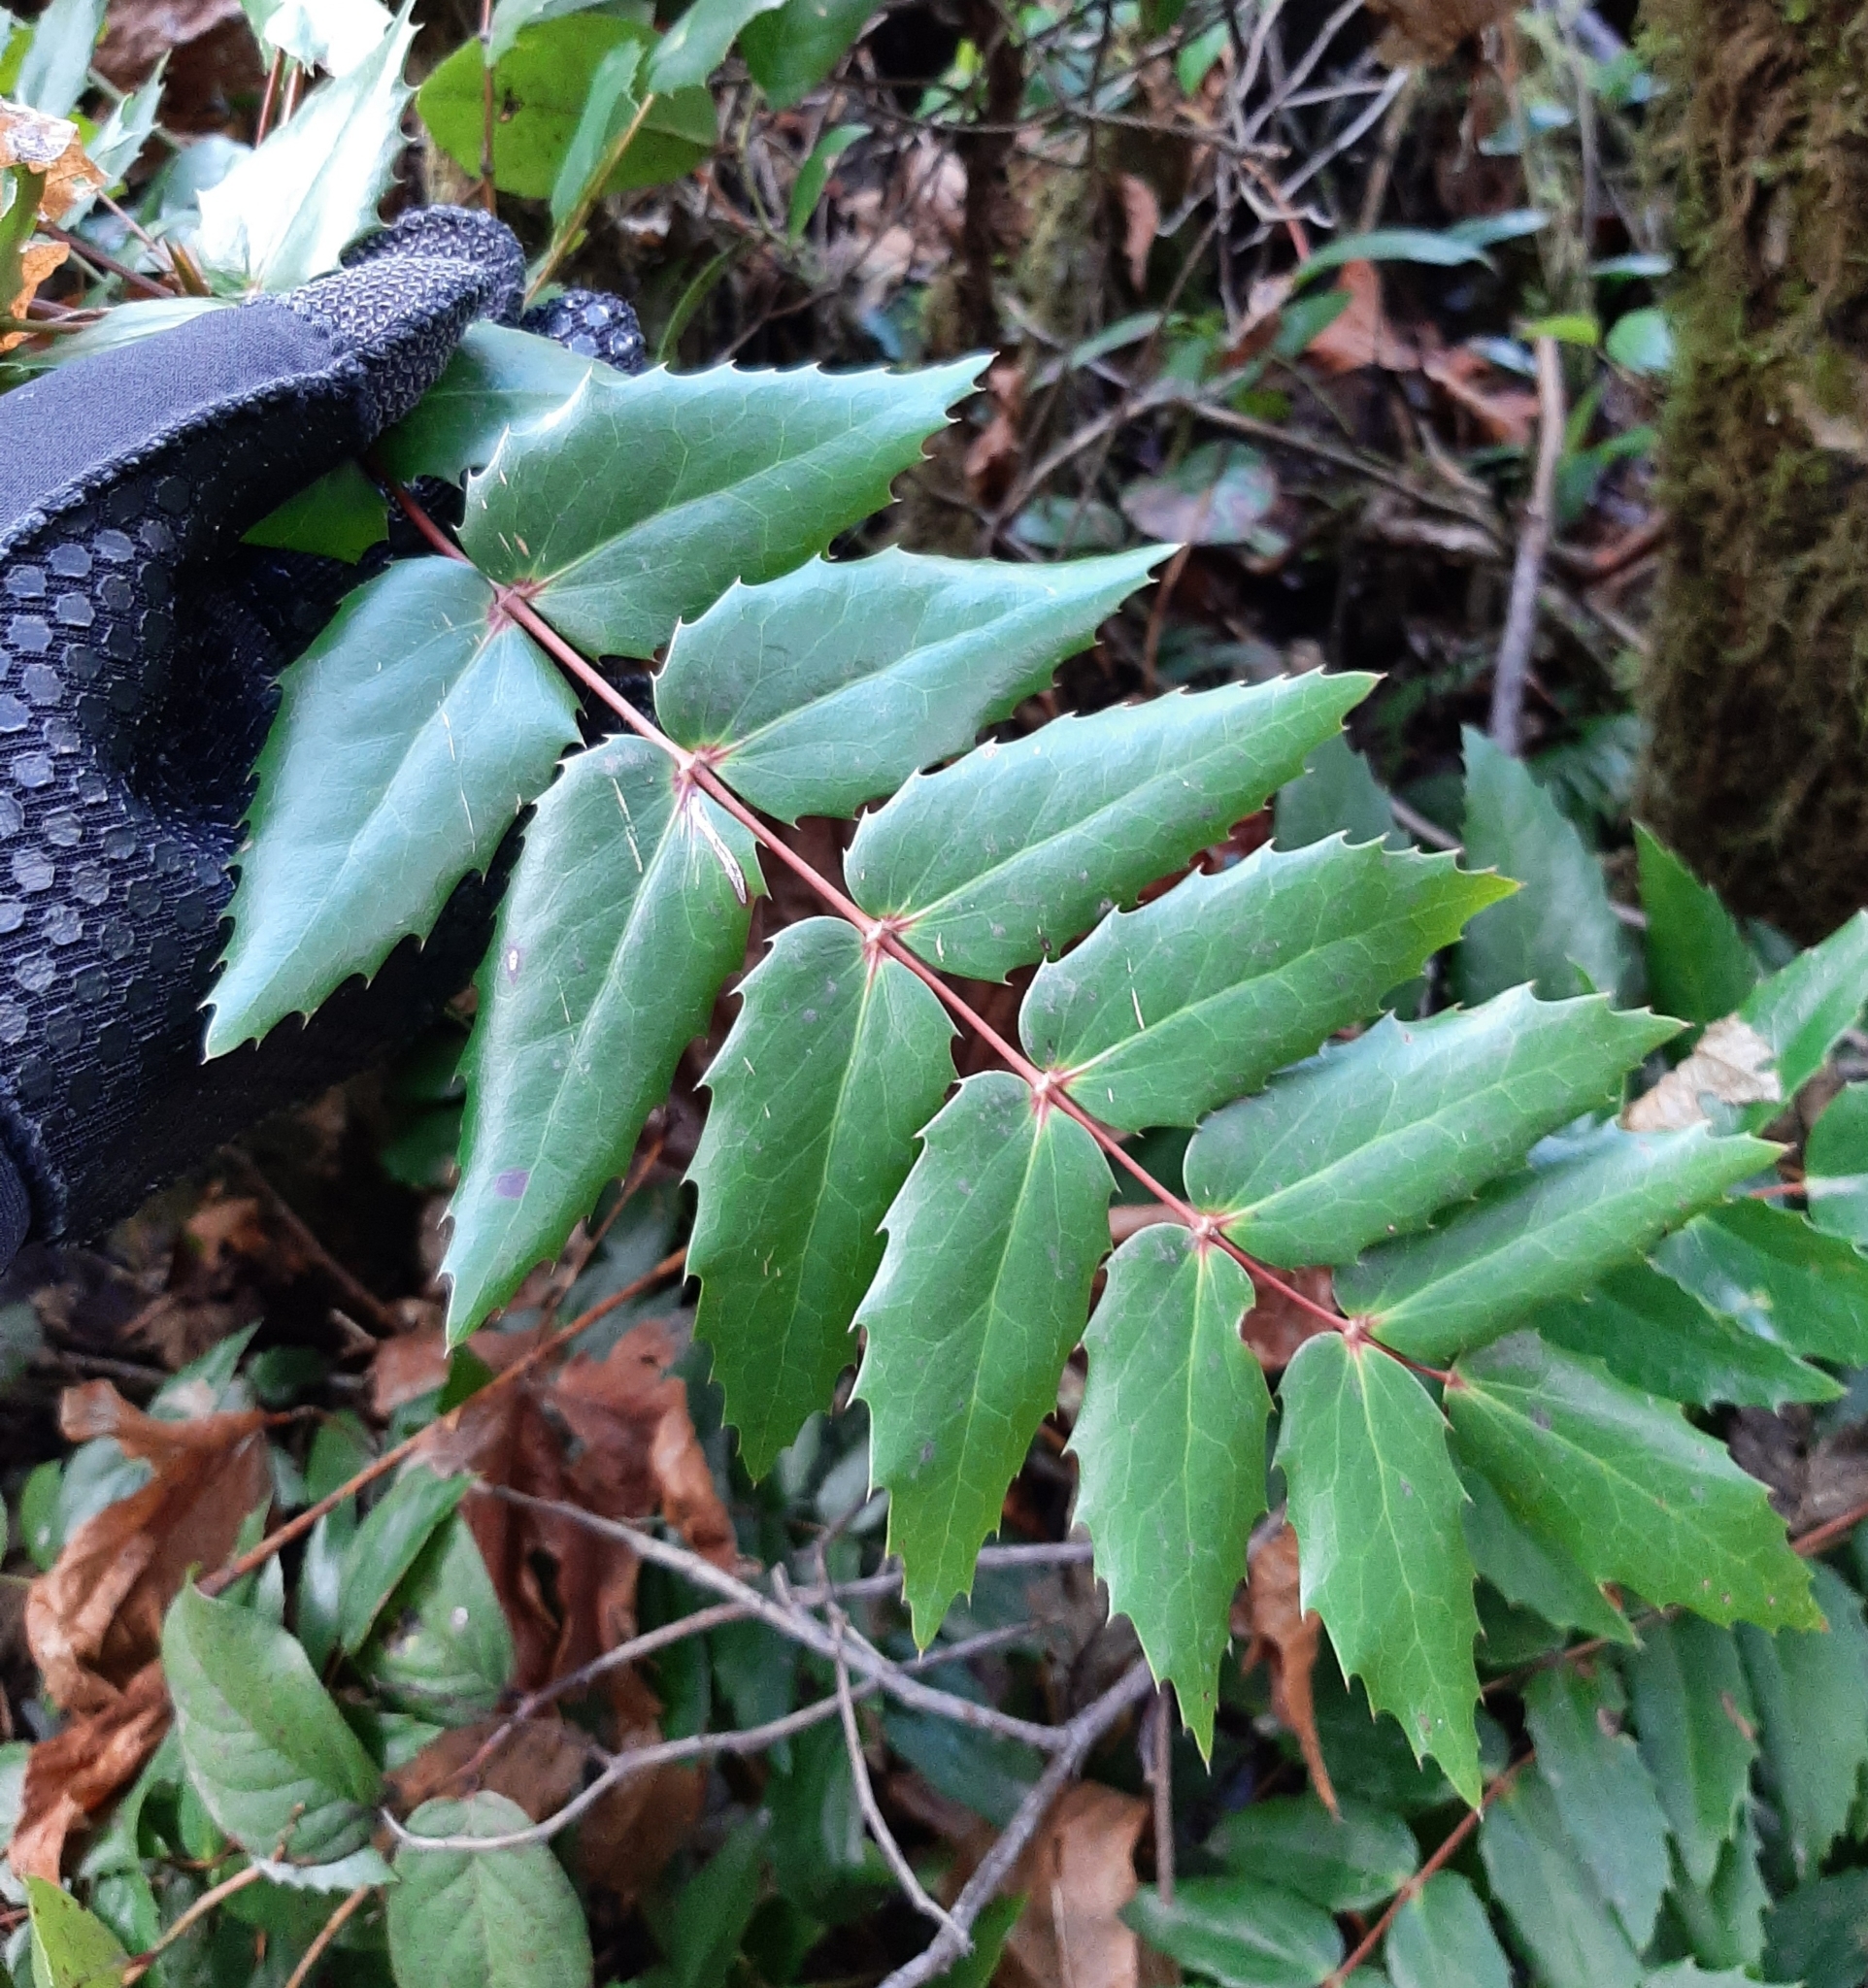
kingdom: Plantae
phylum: Tracheophyta
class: Magnoliopsida
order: Ranunculales
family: Berberidaceae
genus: Mahonia
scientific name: Mahonia nervosa
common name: Cascade oregon-grape
